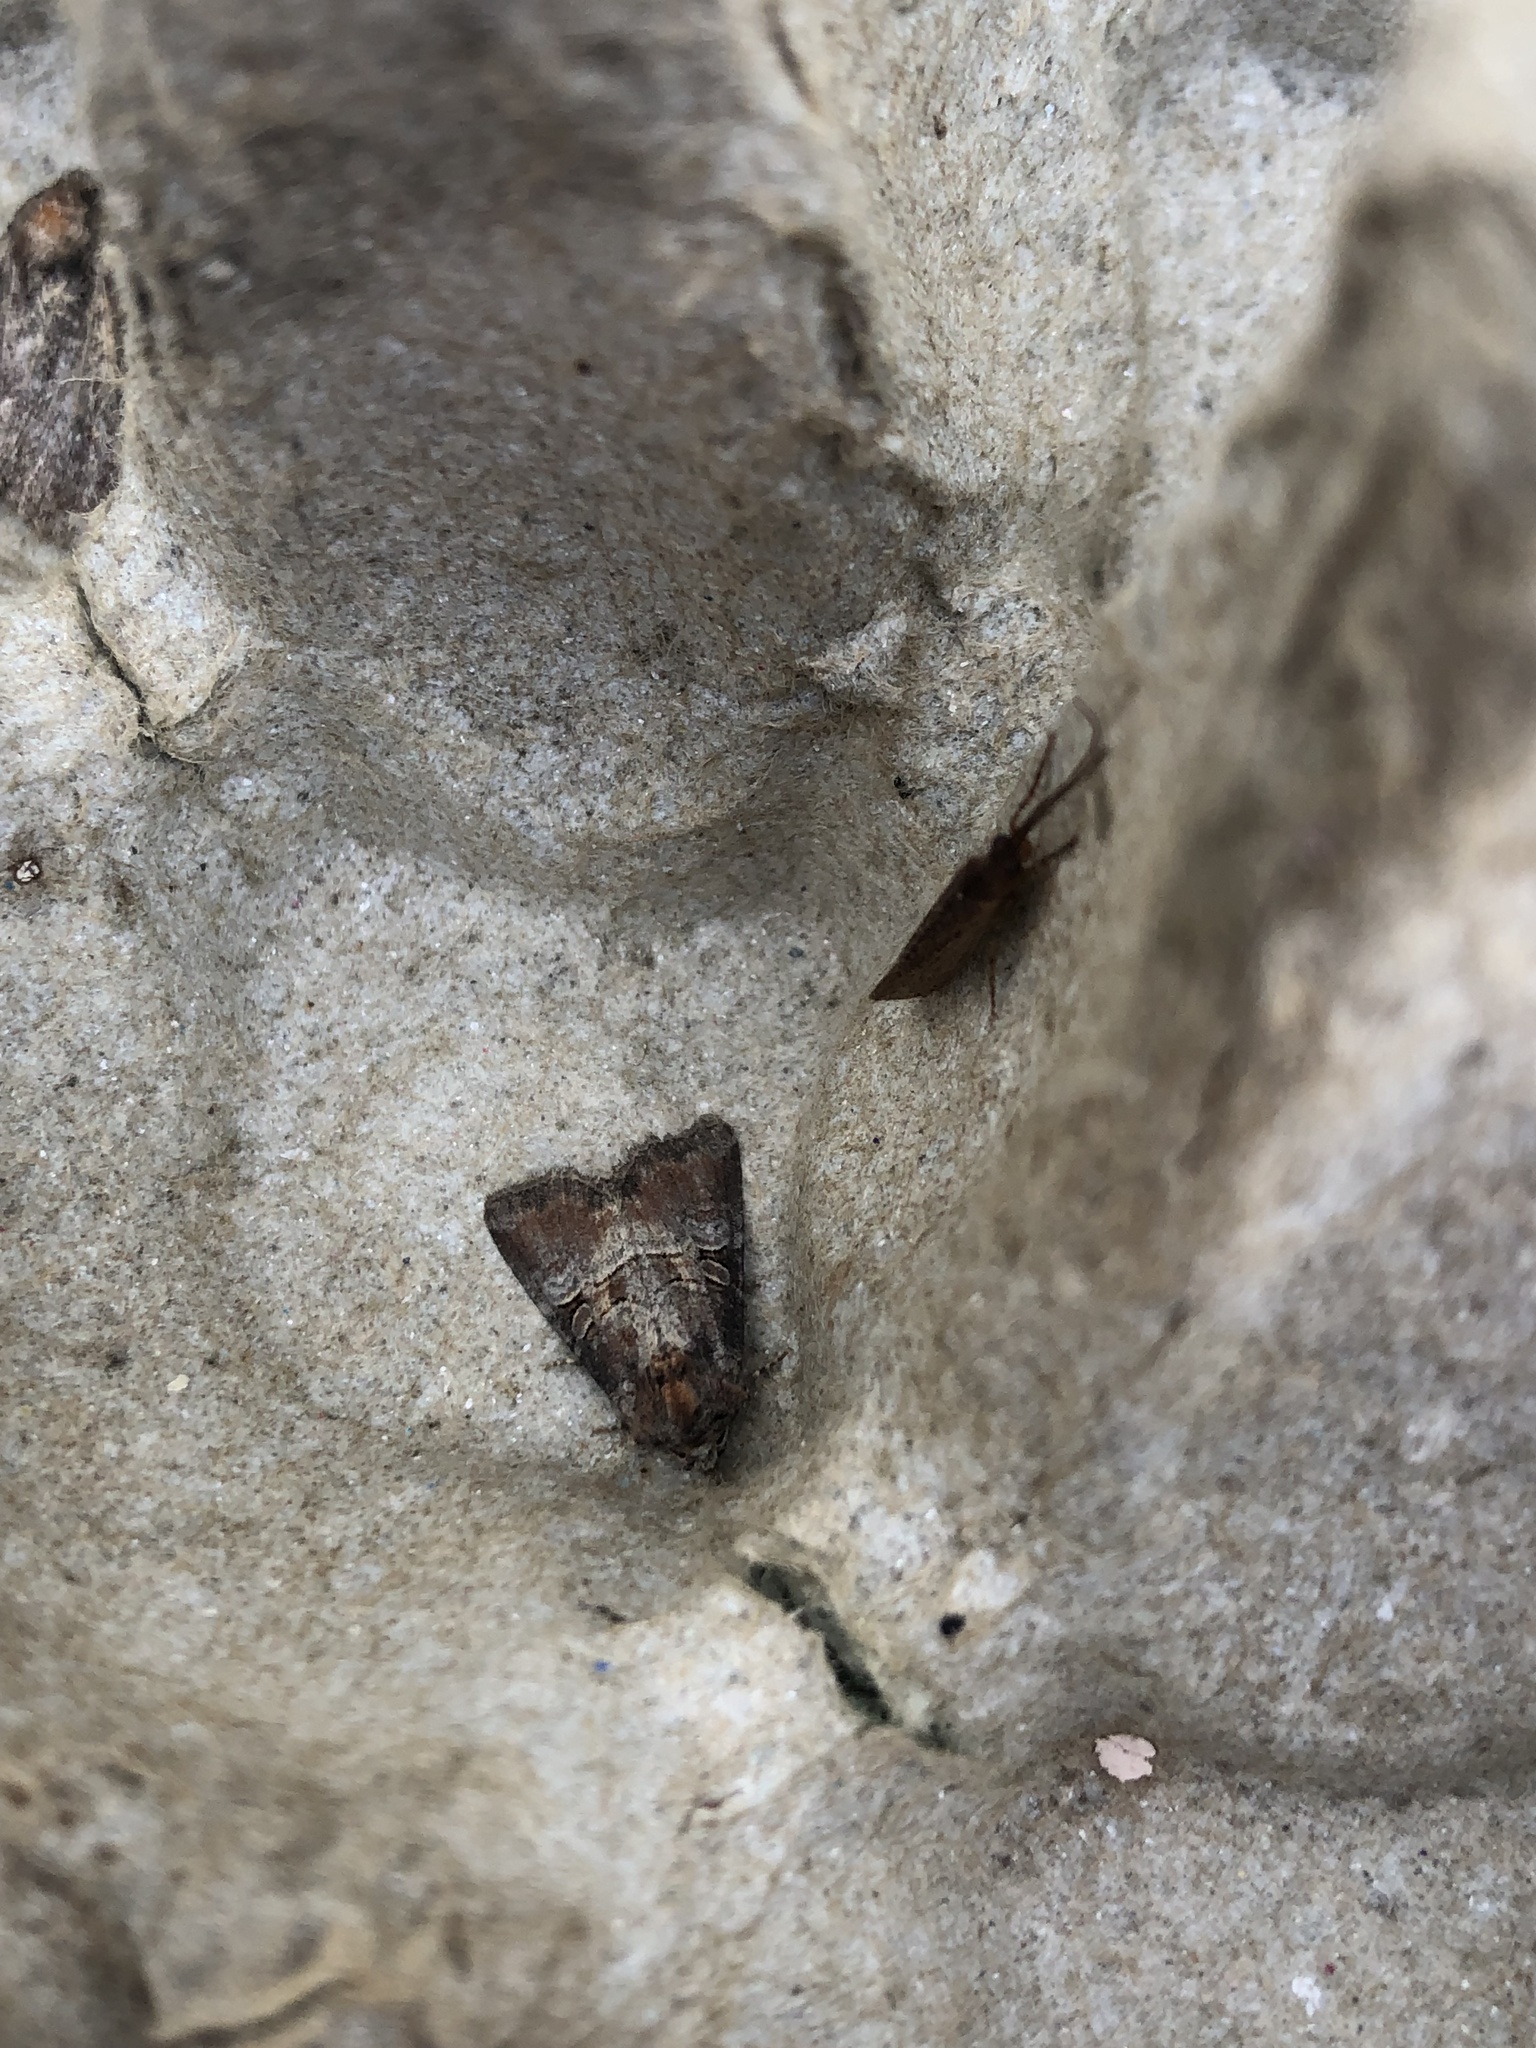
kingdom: Animalia
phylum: Arthropoda
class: Insecta
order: Lepidoptera
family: Noctuidae
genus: Litoligia
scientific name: Litoligia literosa
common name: Rosy minor
